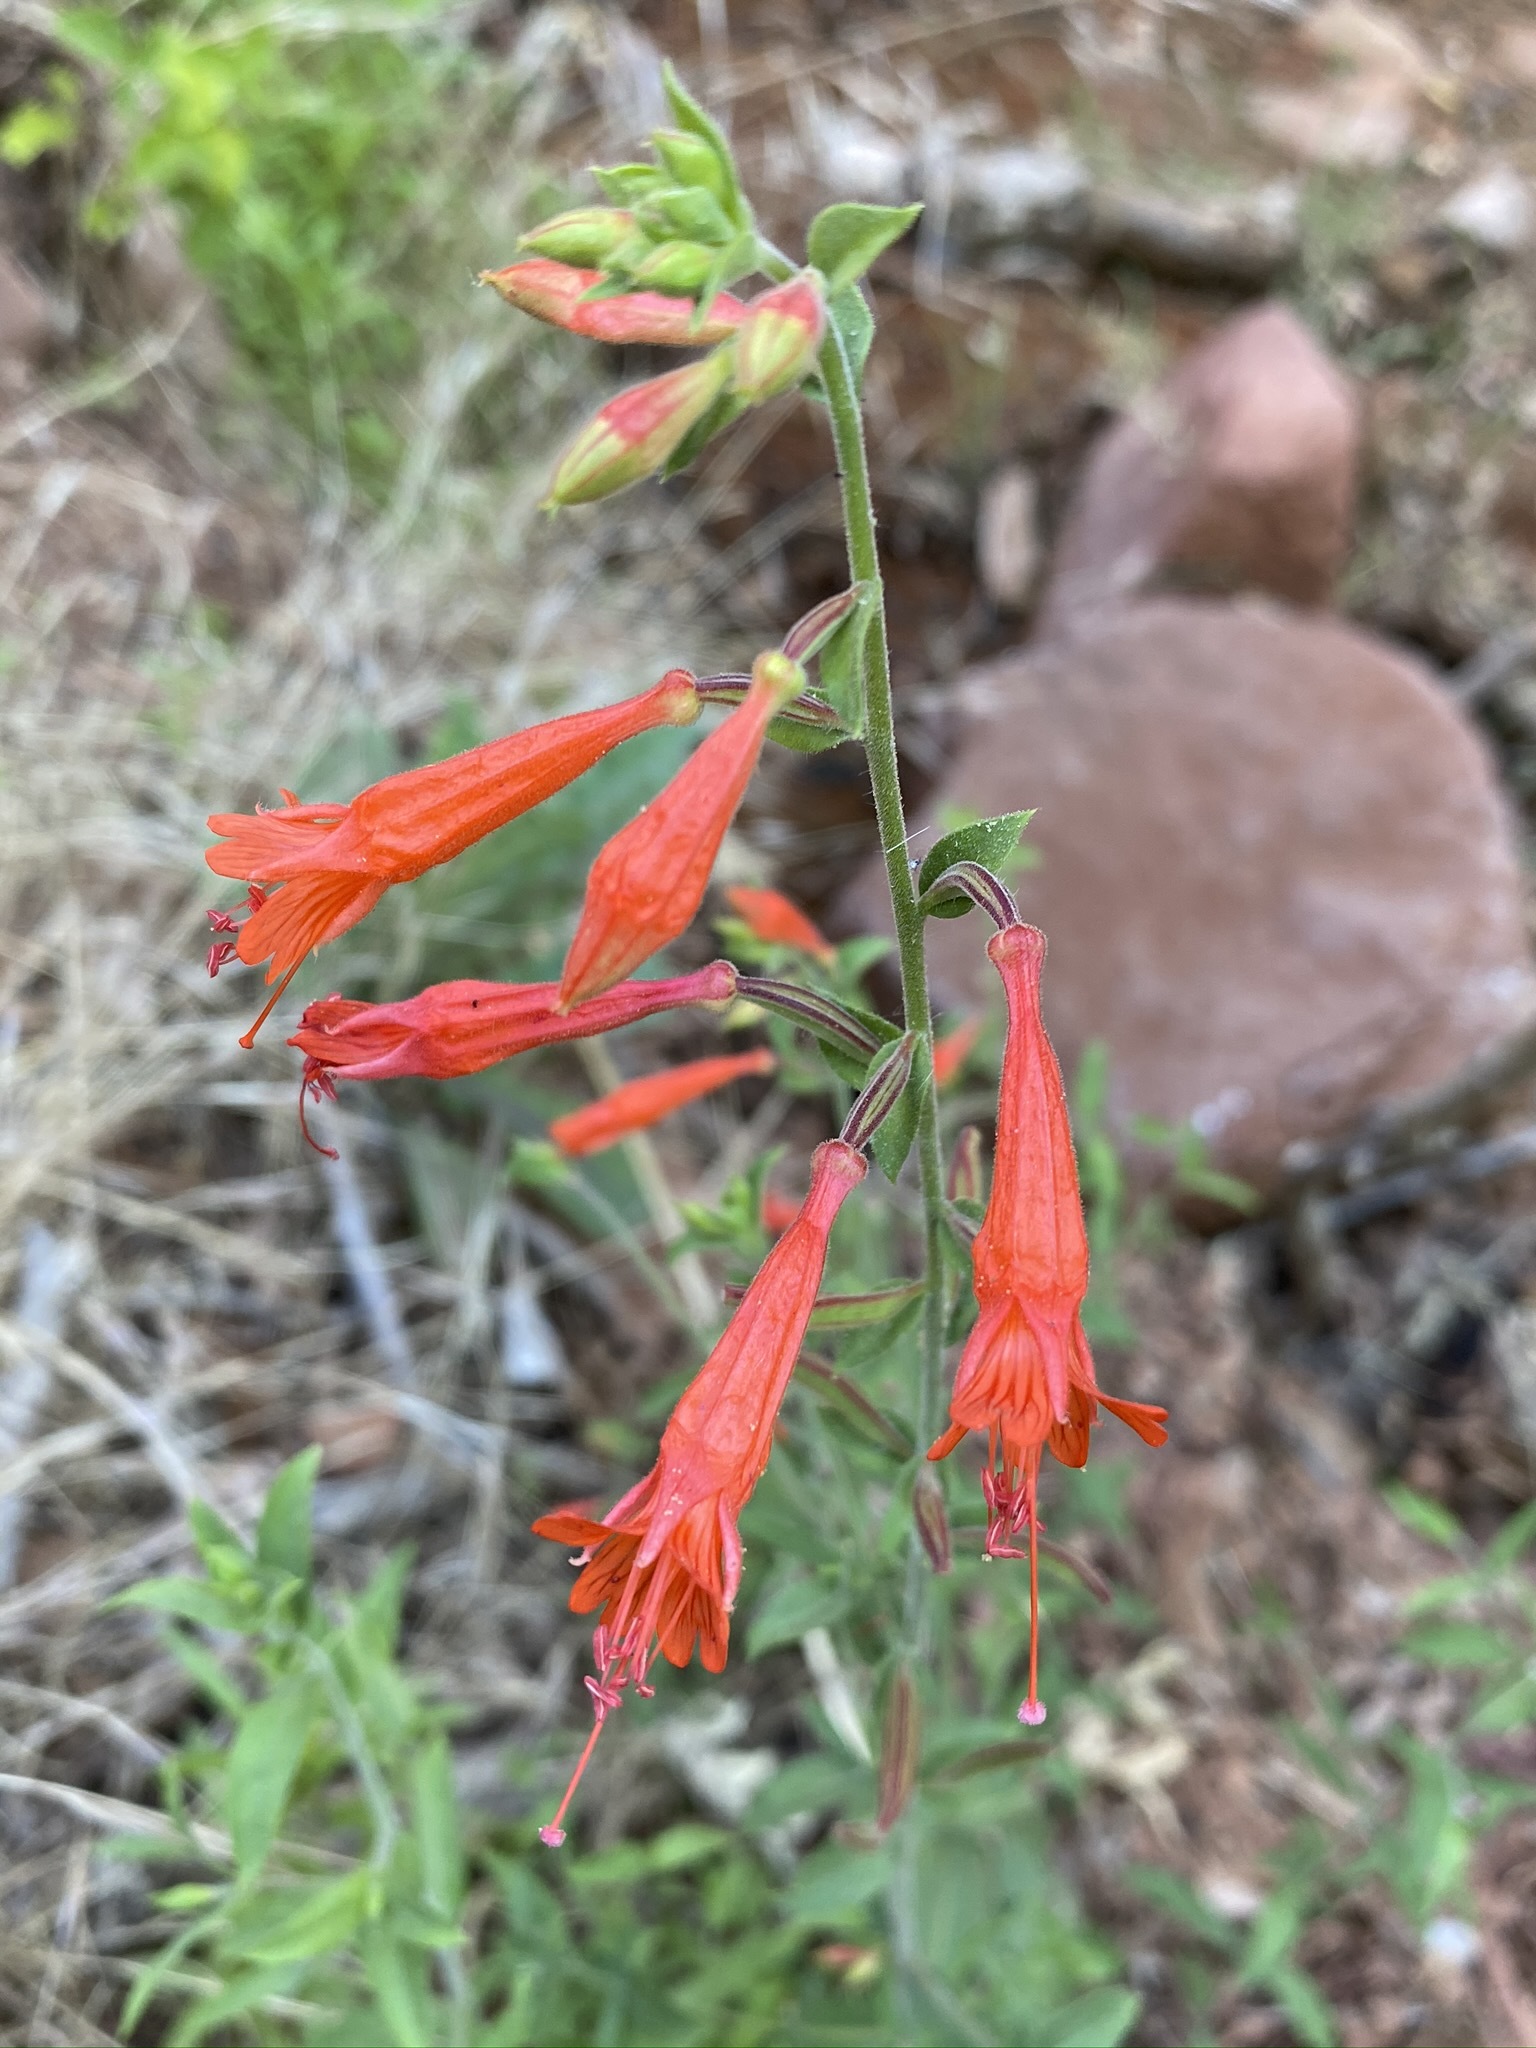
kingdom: Plantae
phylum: Tracheophyta
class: Magnoliopsida
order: Myrtales
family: Onagraceae
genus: Epilobium
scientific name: Epilobium canum
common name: California-fuchsia
